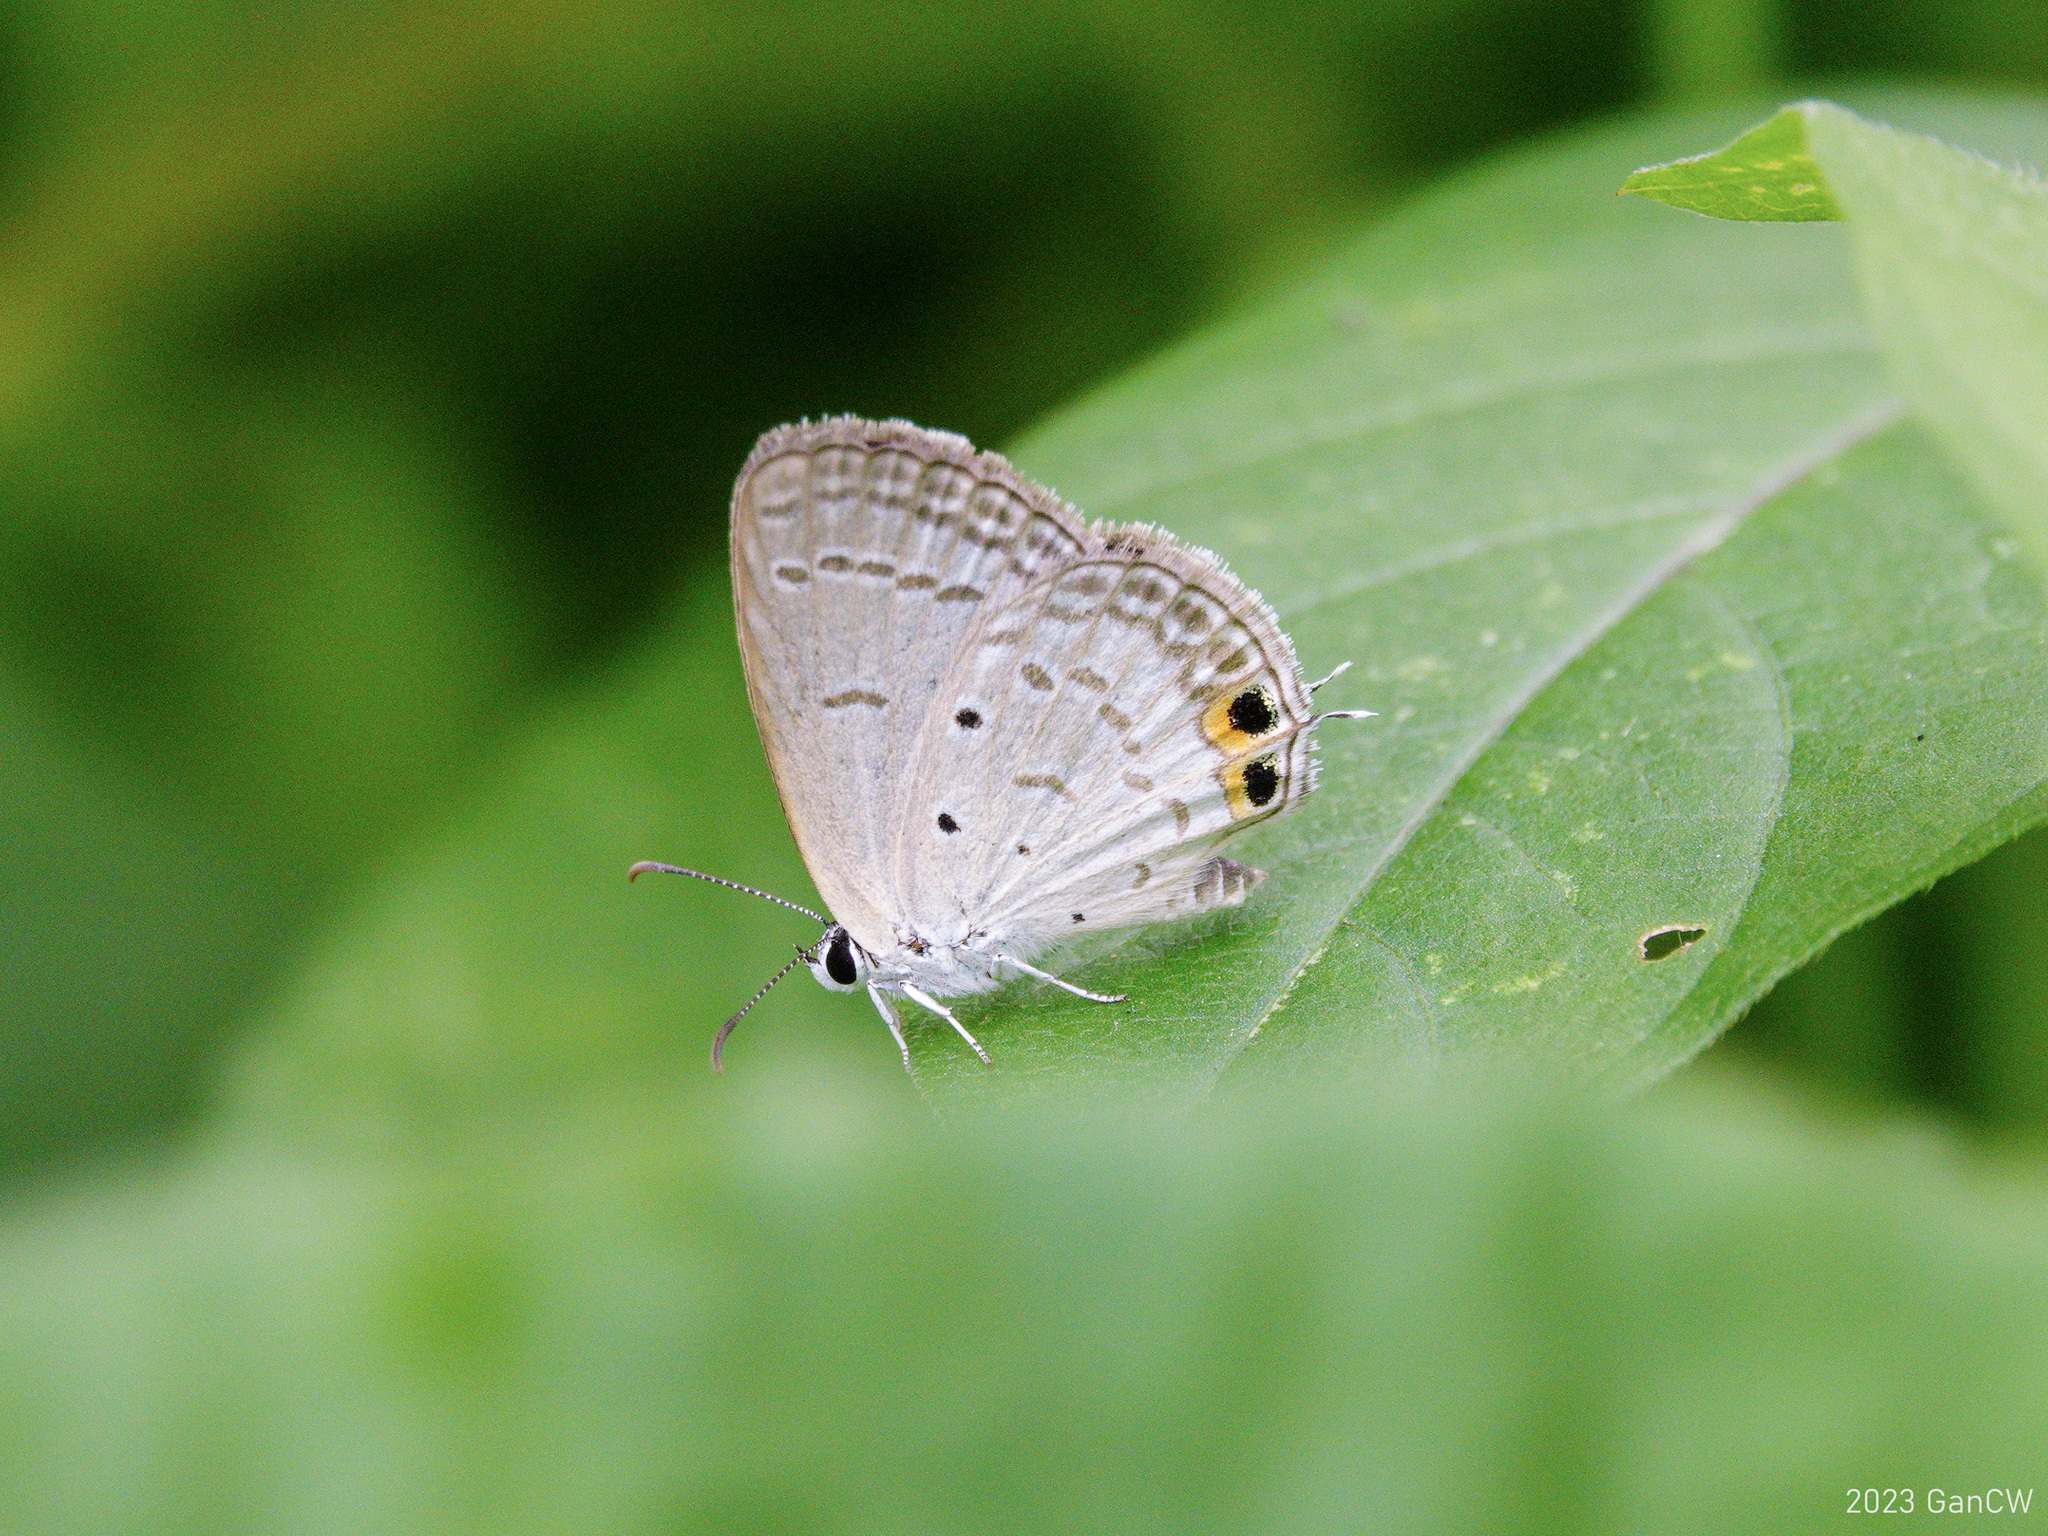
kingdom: Animalia
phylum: Arthropoda
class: Insecta
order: Lepidoptera
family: Lycaenidae
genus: Euchrysops
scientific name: Euchrysops cnejus
